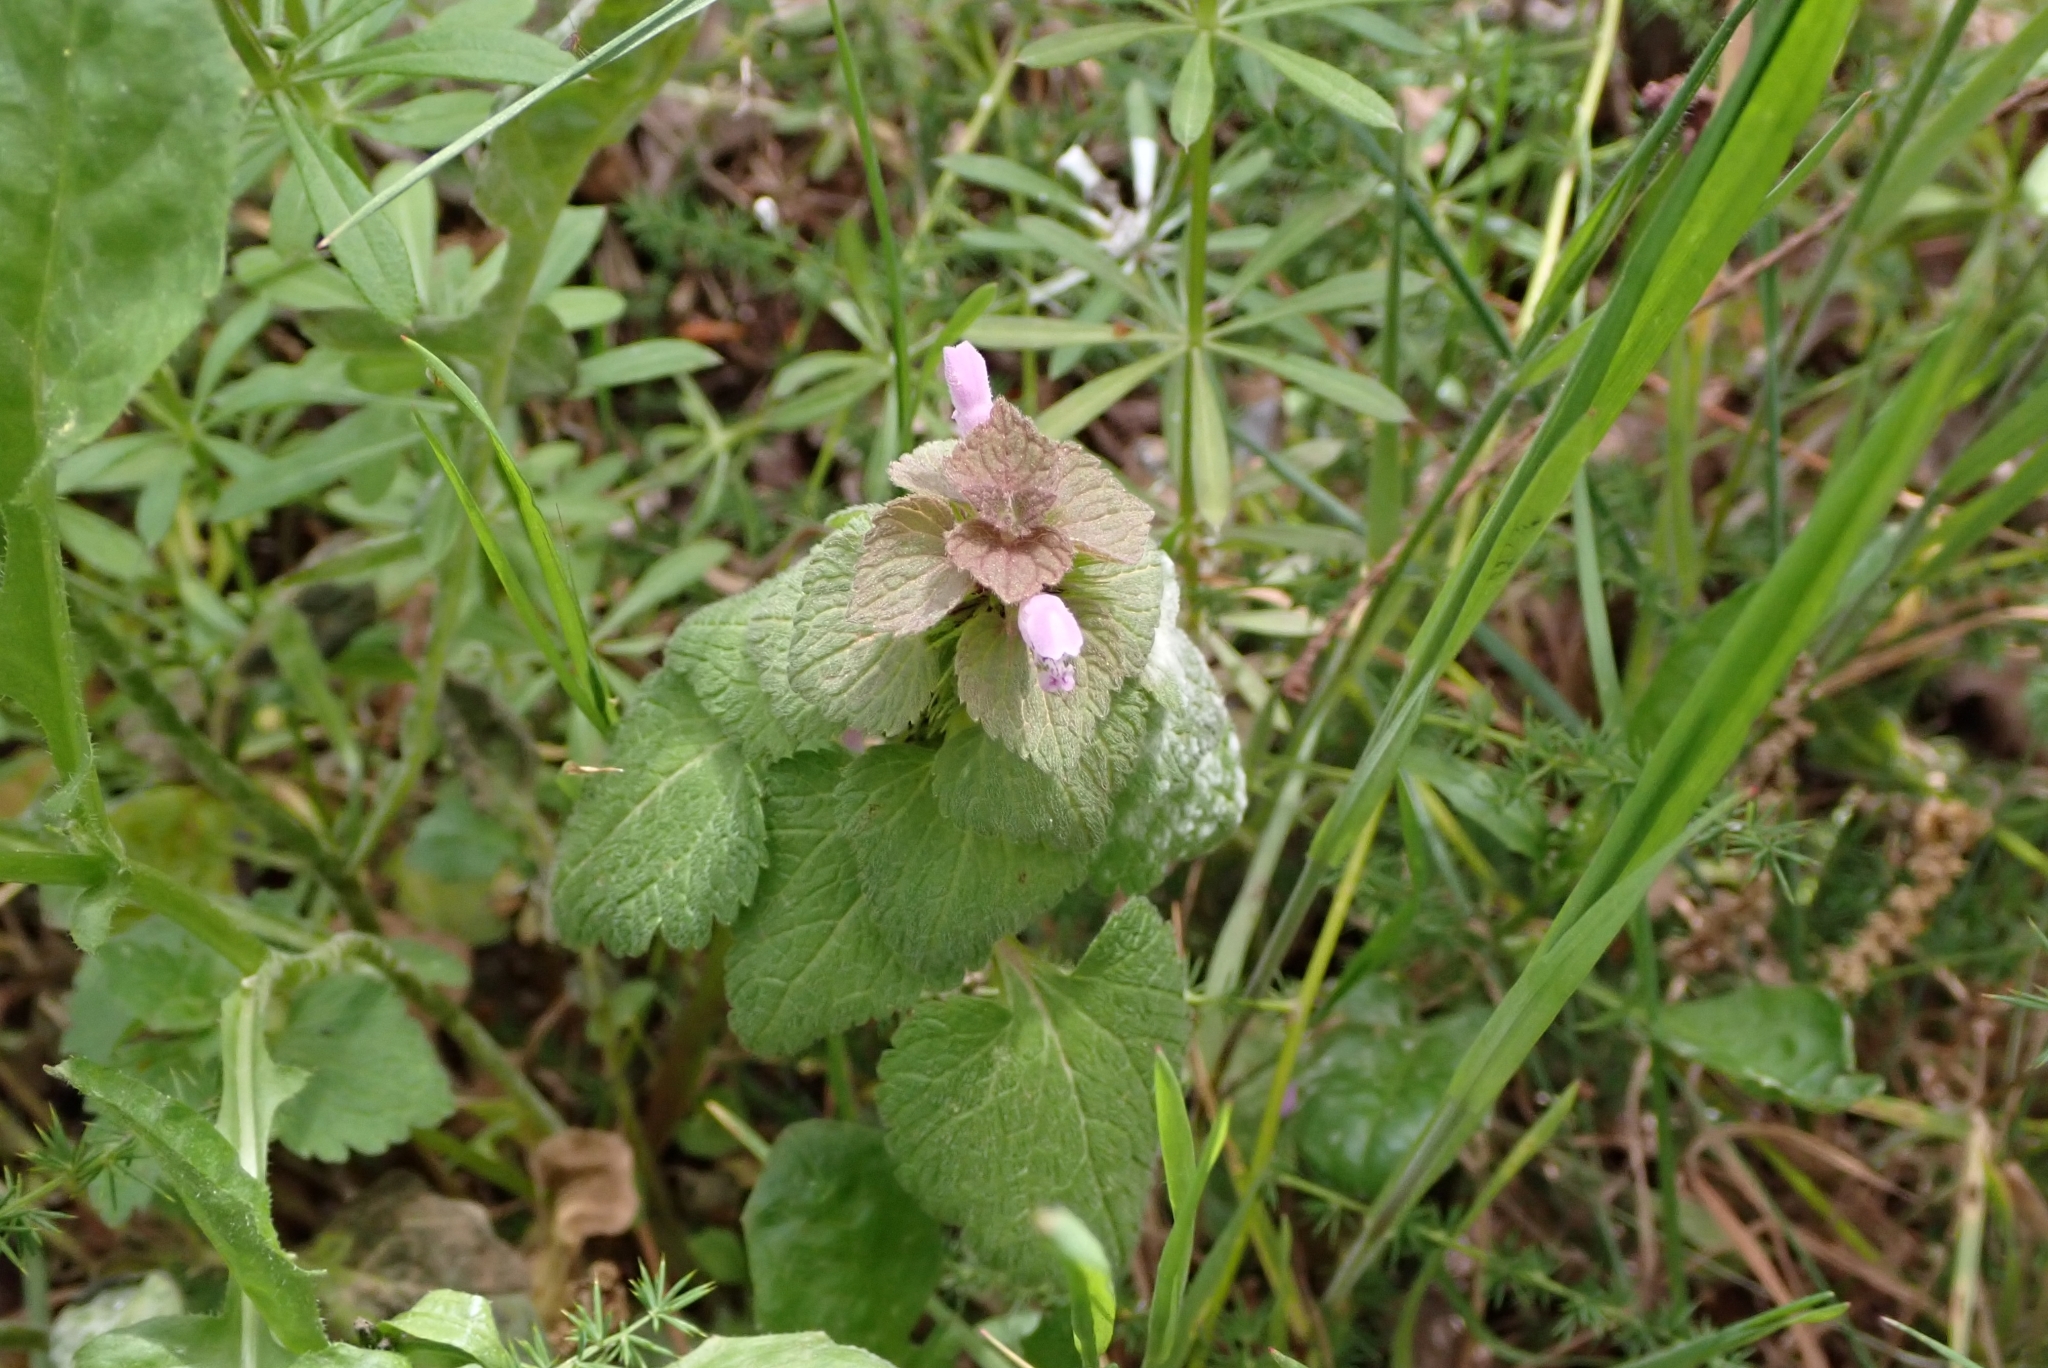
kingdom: Plantae
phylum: Tracheophyta
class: Magnoliopsida
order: Lamiales
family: Lamiaceae
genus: Lamium
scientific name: Lamium purpureum
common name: Red dead-nettle
